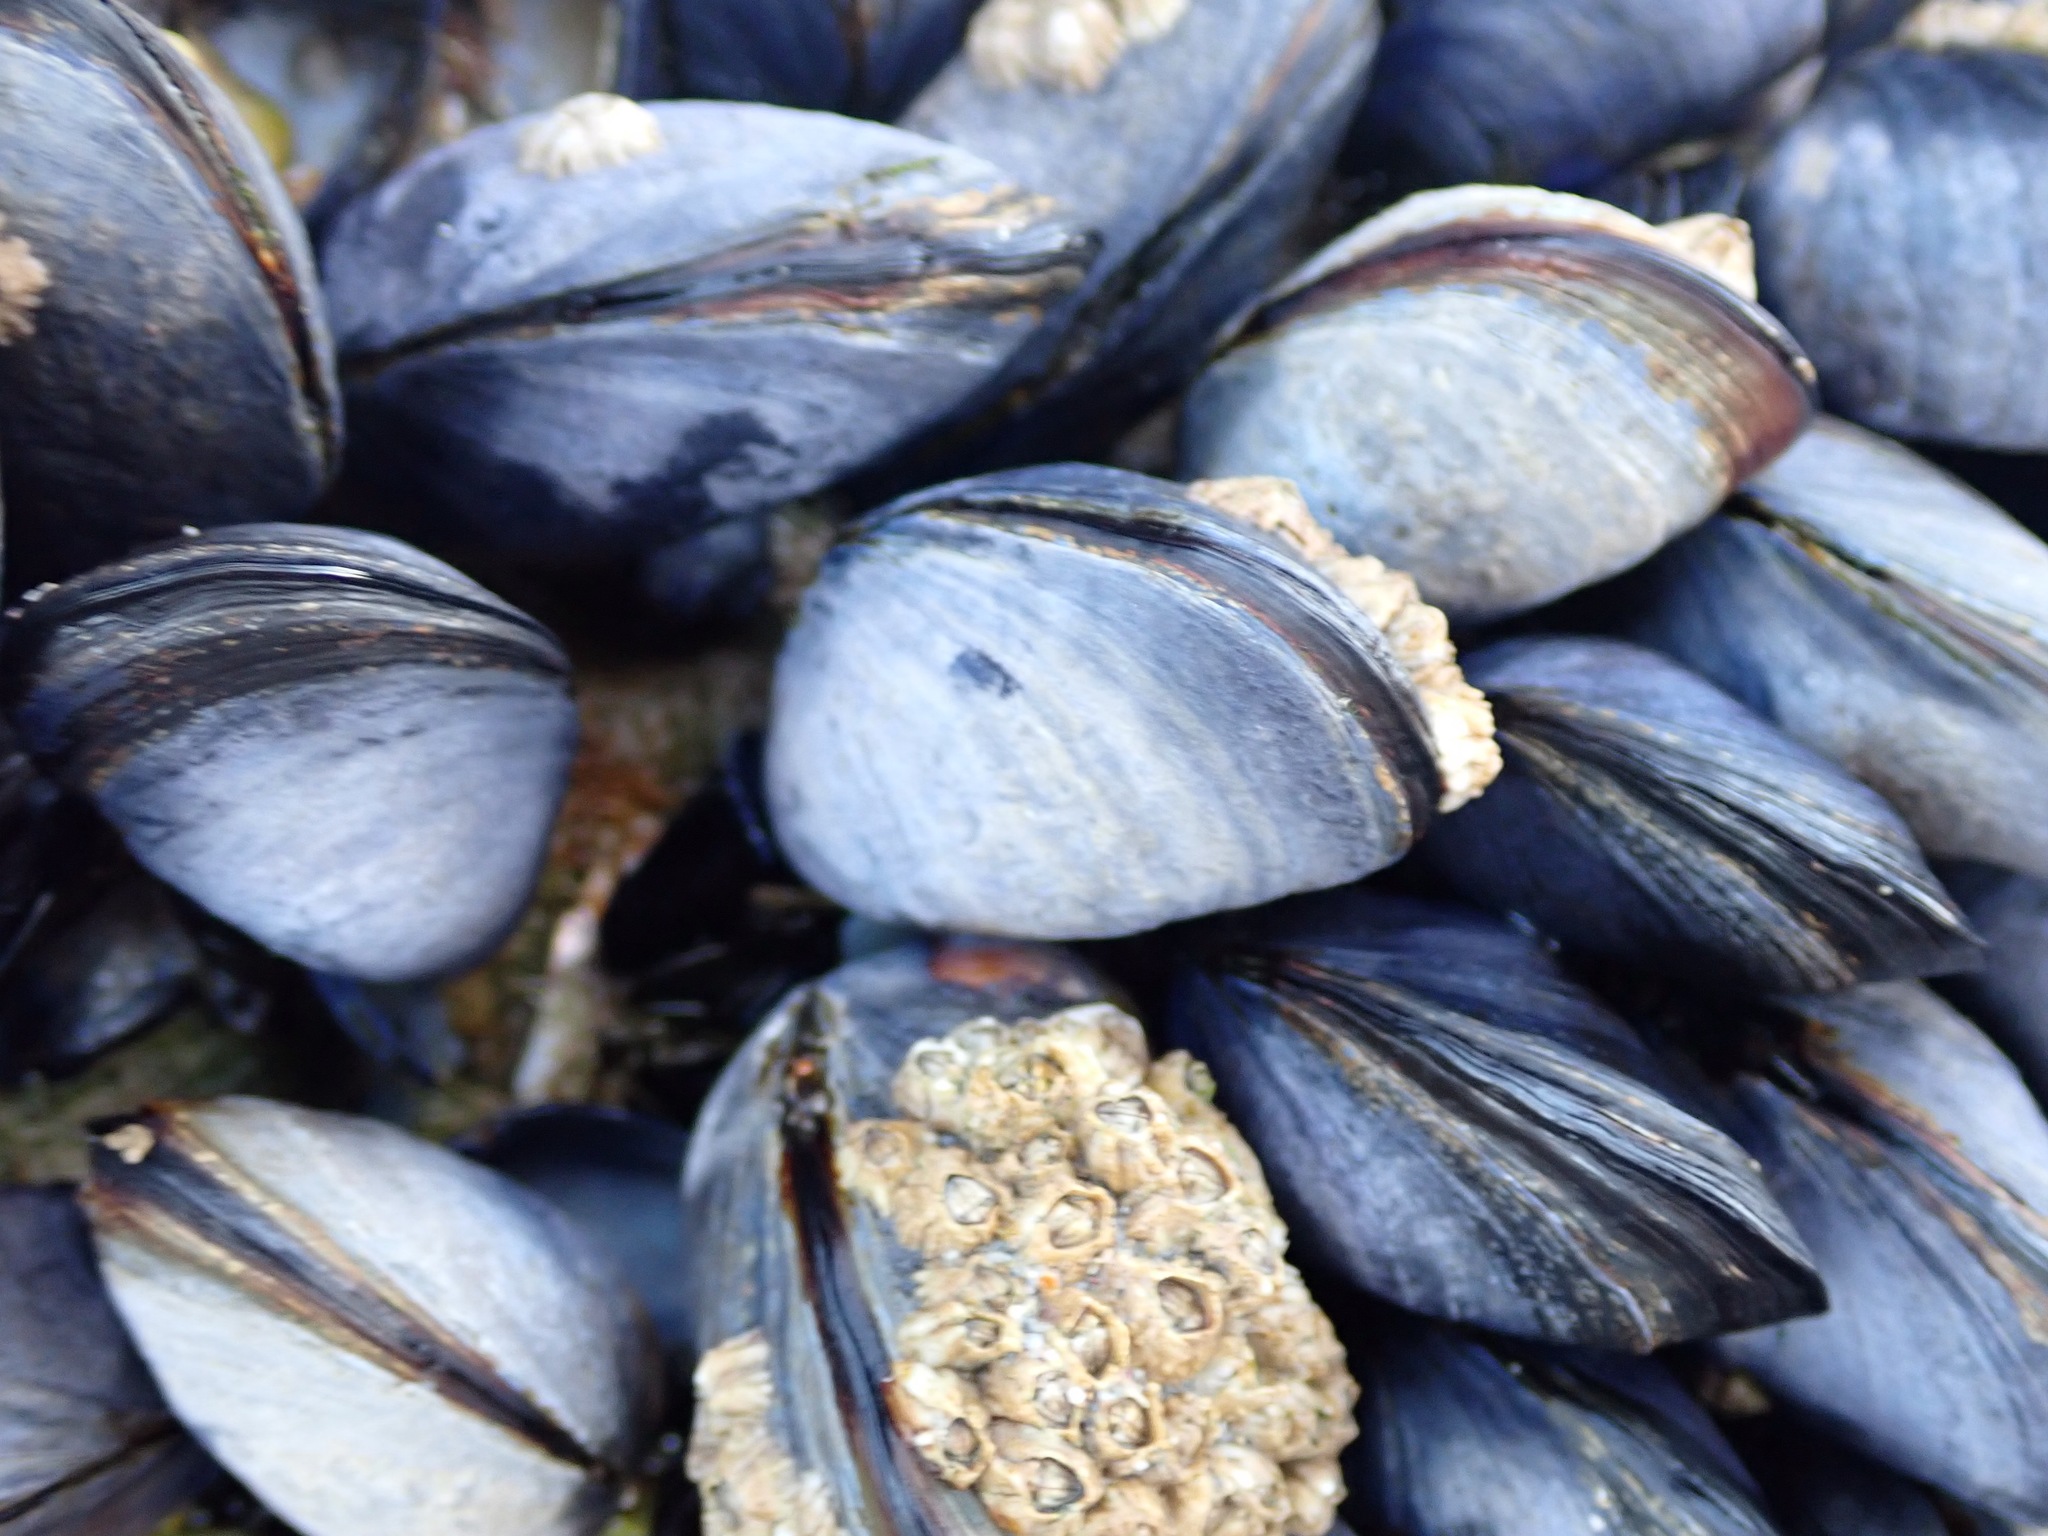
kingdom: Animalia
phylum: Mollusca
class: Bivalvia
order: Mytilida
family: Mytilidae
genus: Mytilus
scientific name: Mytilus edulis
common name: Blue mussel
